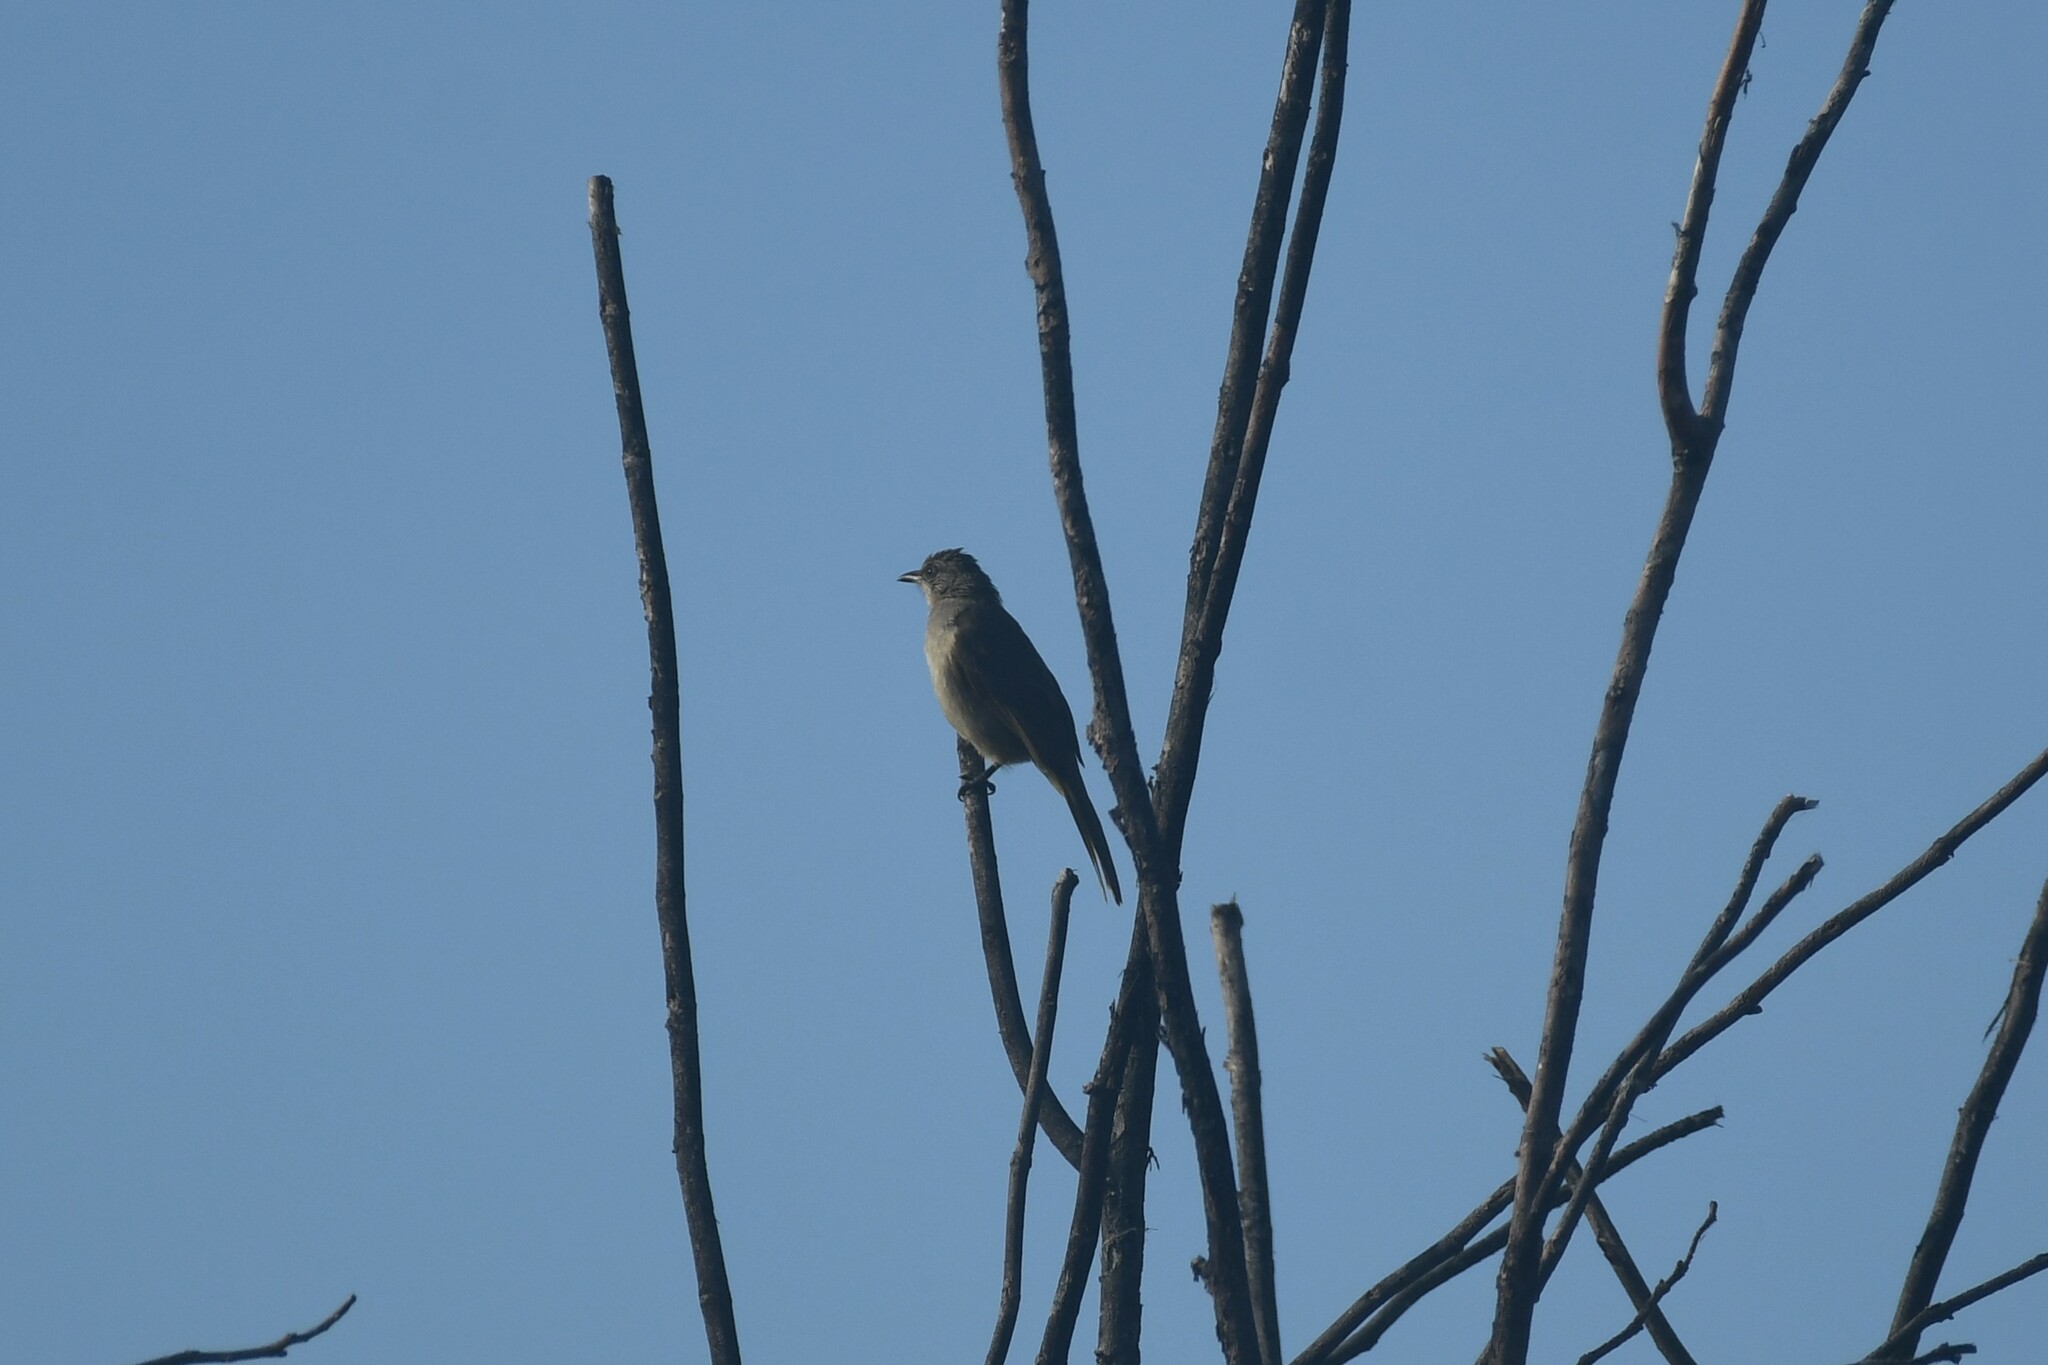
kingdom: Animalia
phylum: Chordata
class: Aves
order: Passeriformes
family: Pycnonotidae
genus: Pycnonotus
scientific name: Pycnonotus blanfordi
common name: Streak-eared bulbul
